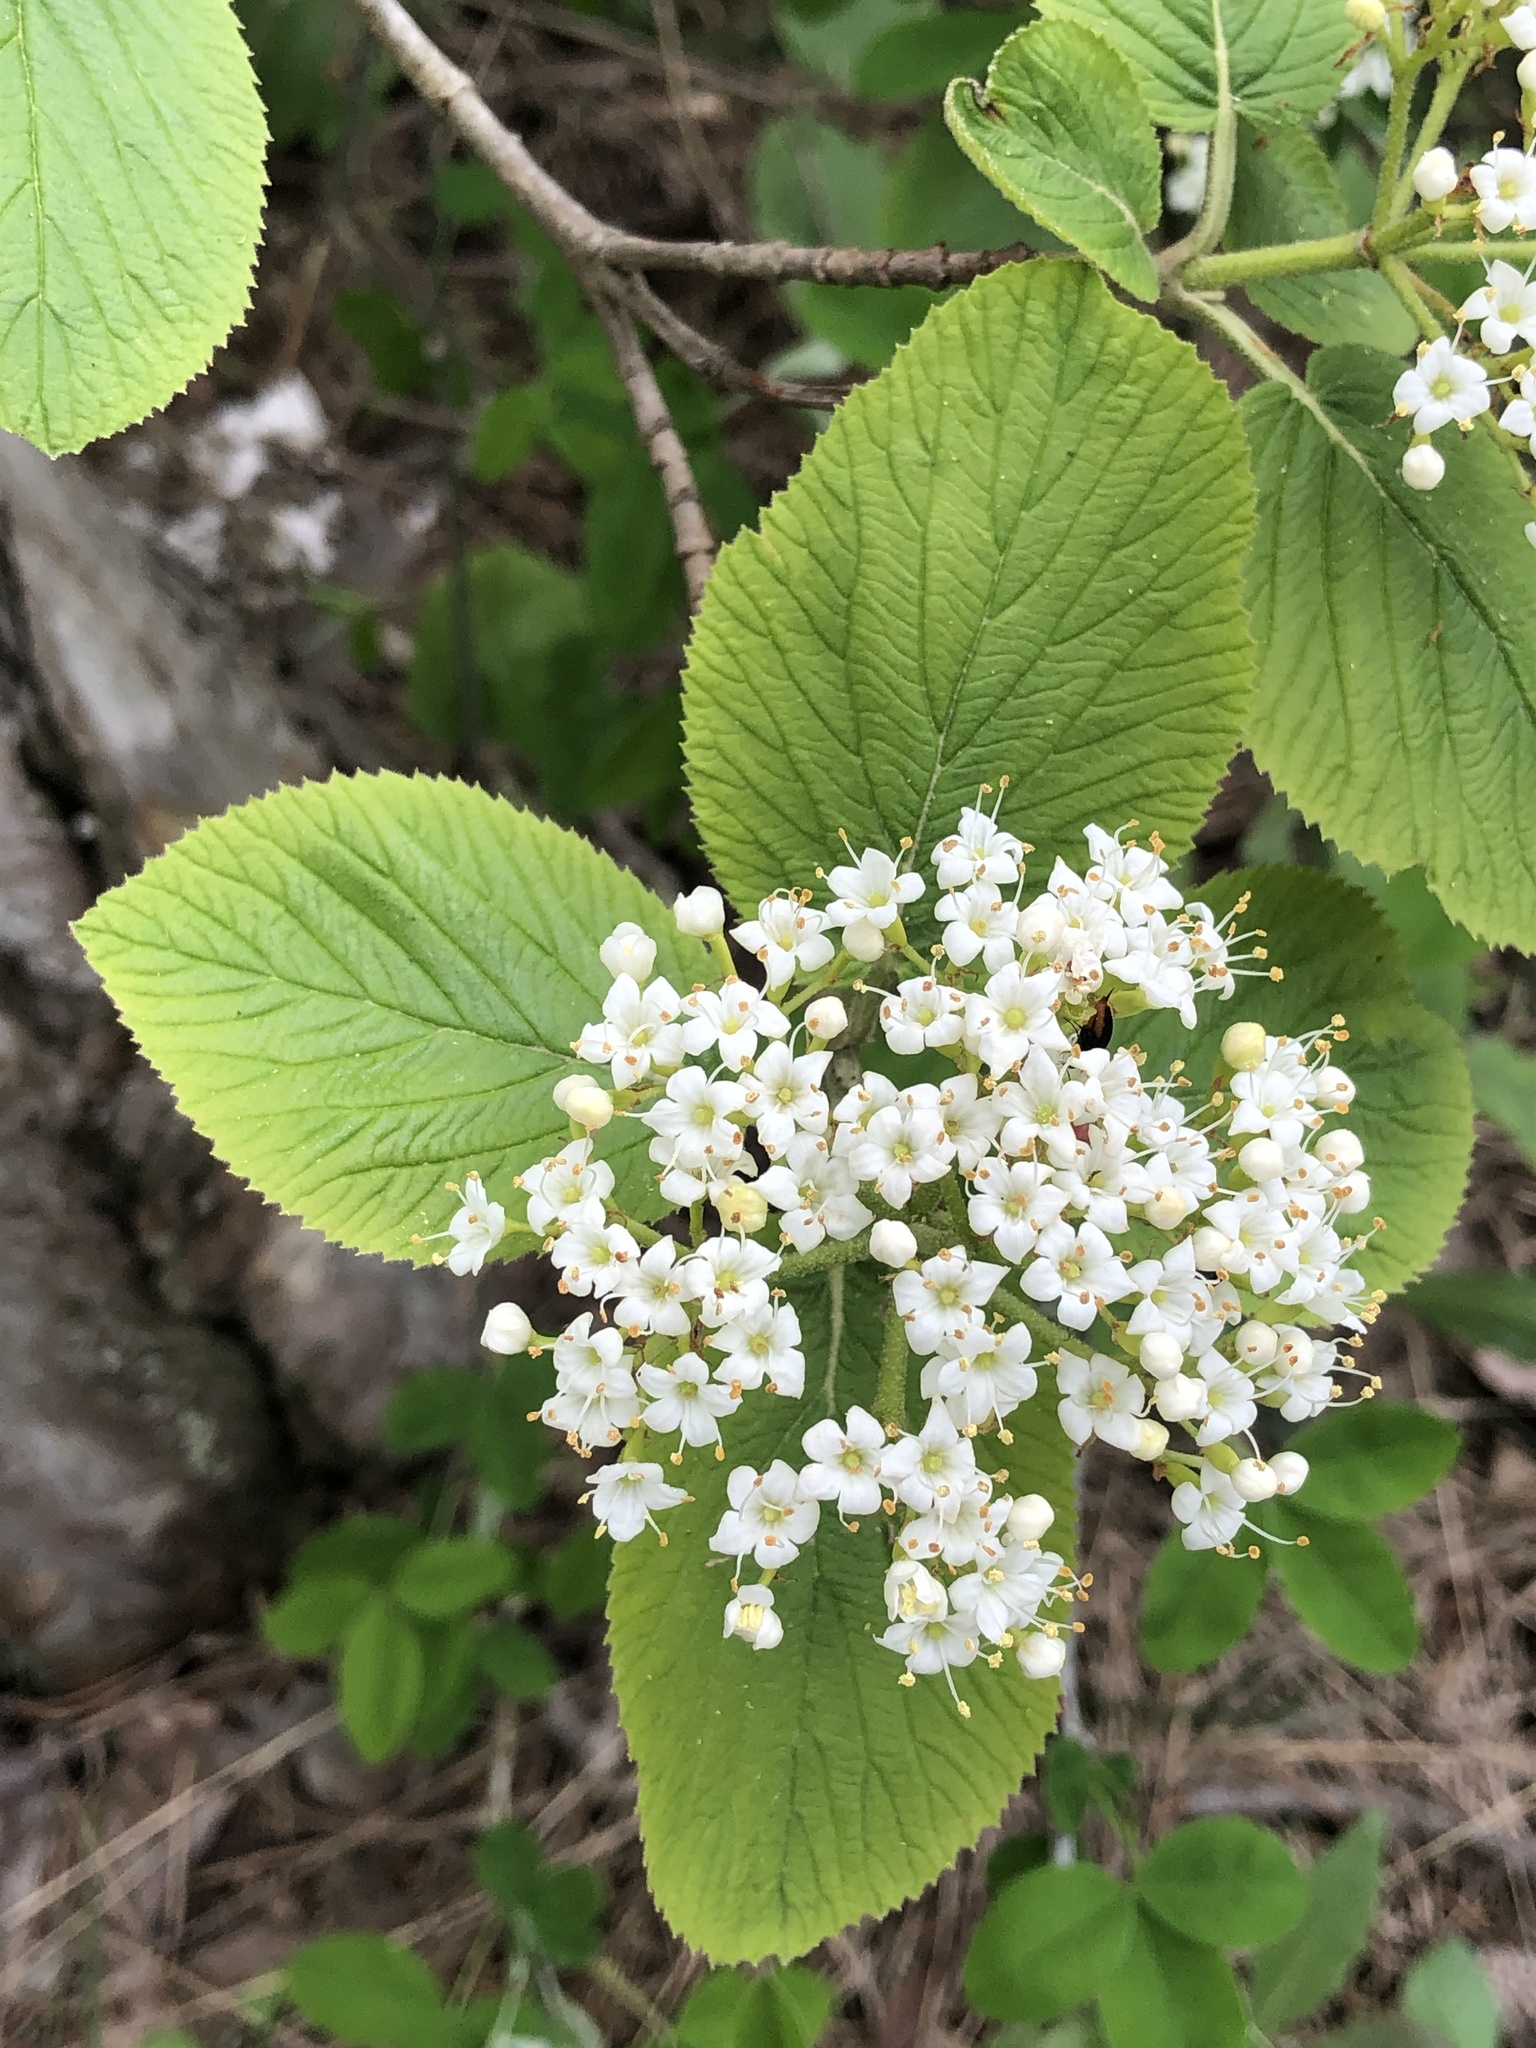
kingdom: Plantae
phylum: Tracheophyta
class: Magnoliopsida
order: Dipsacales
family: Viburnaceae
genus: Viburnum
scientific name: Viburnum lantana
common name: Wayfaring tree
